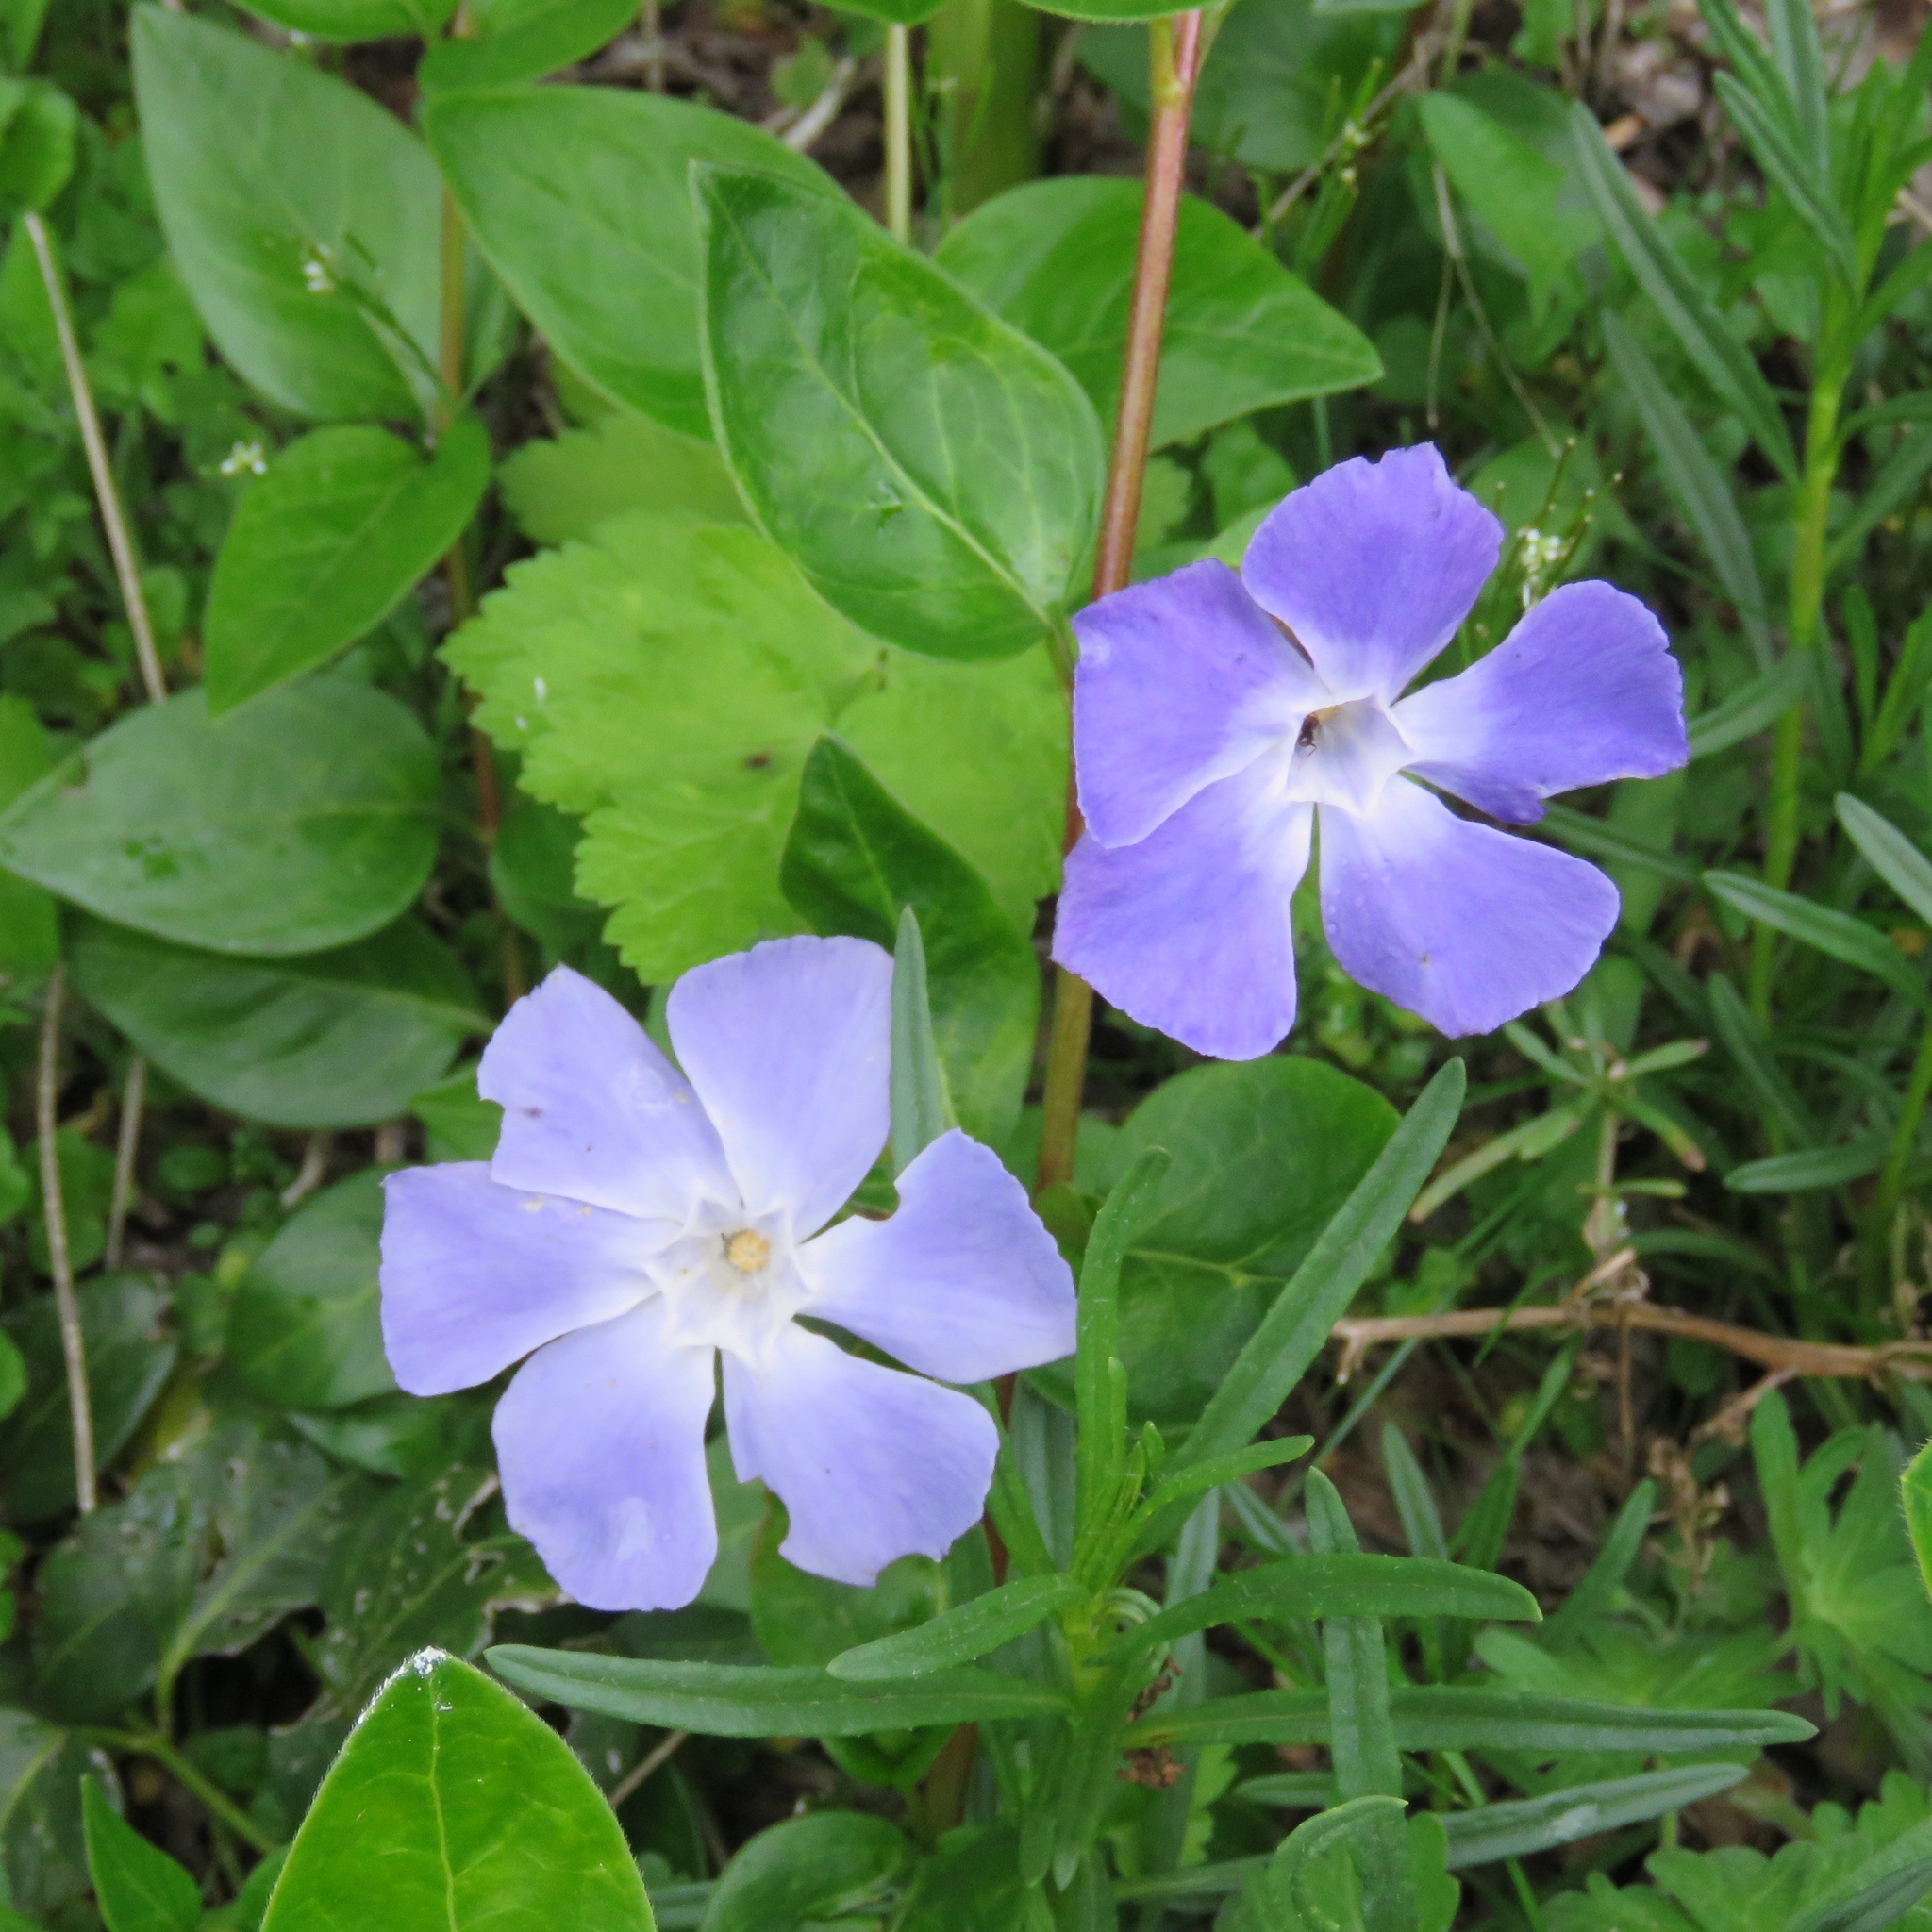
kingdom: Plantae
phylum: Tracheophyta
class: Magnoliopsida
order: Gentianales
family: Apocynaceae
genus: Vinca
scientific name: Vinca major
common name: Greater periwinkle
